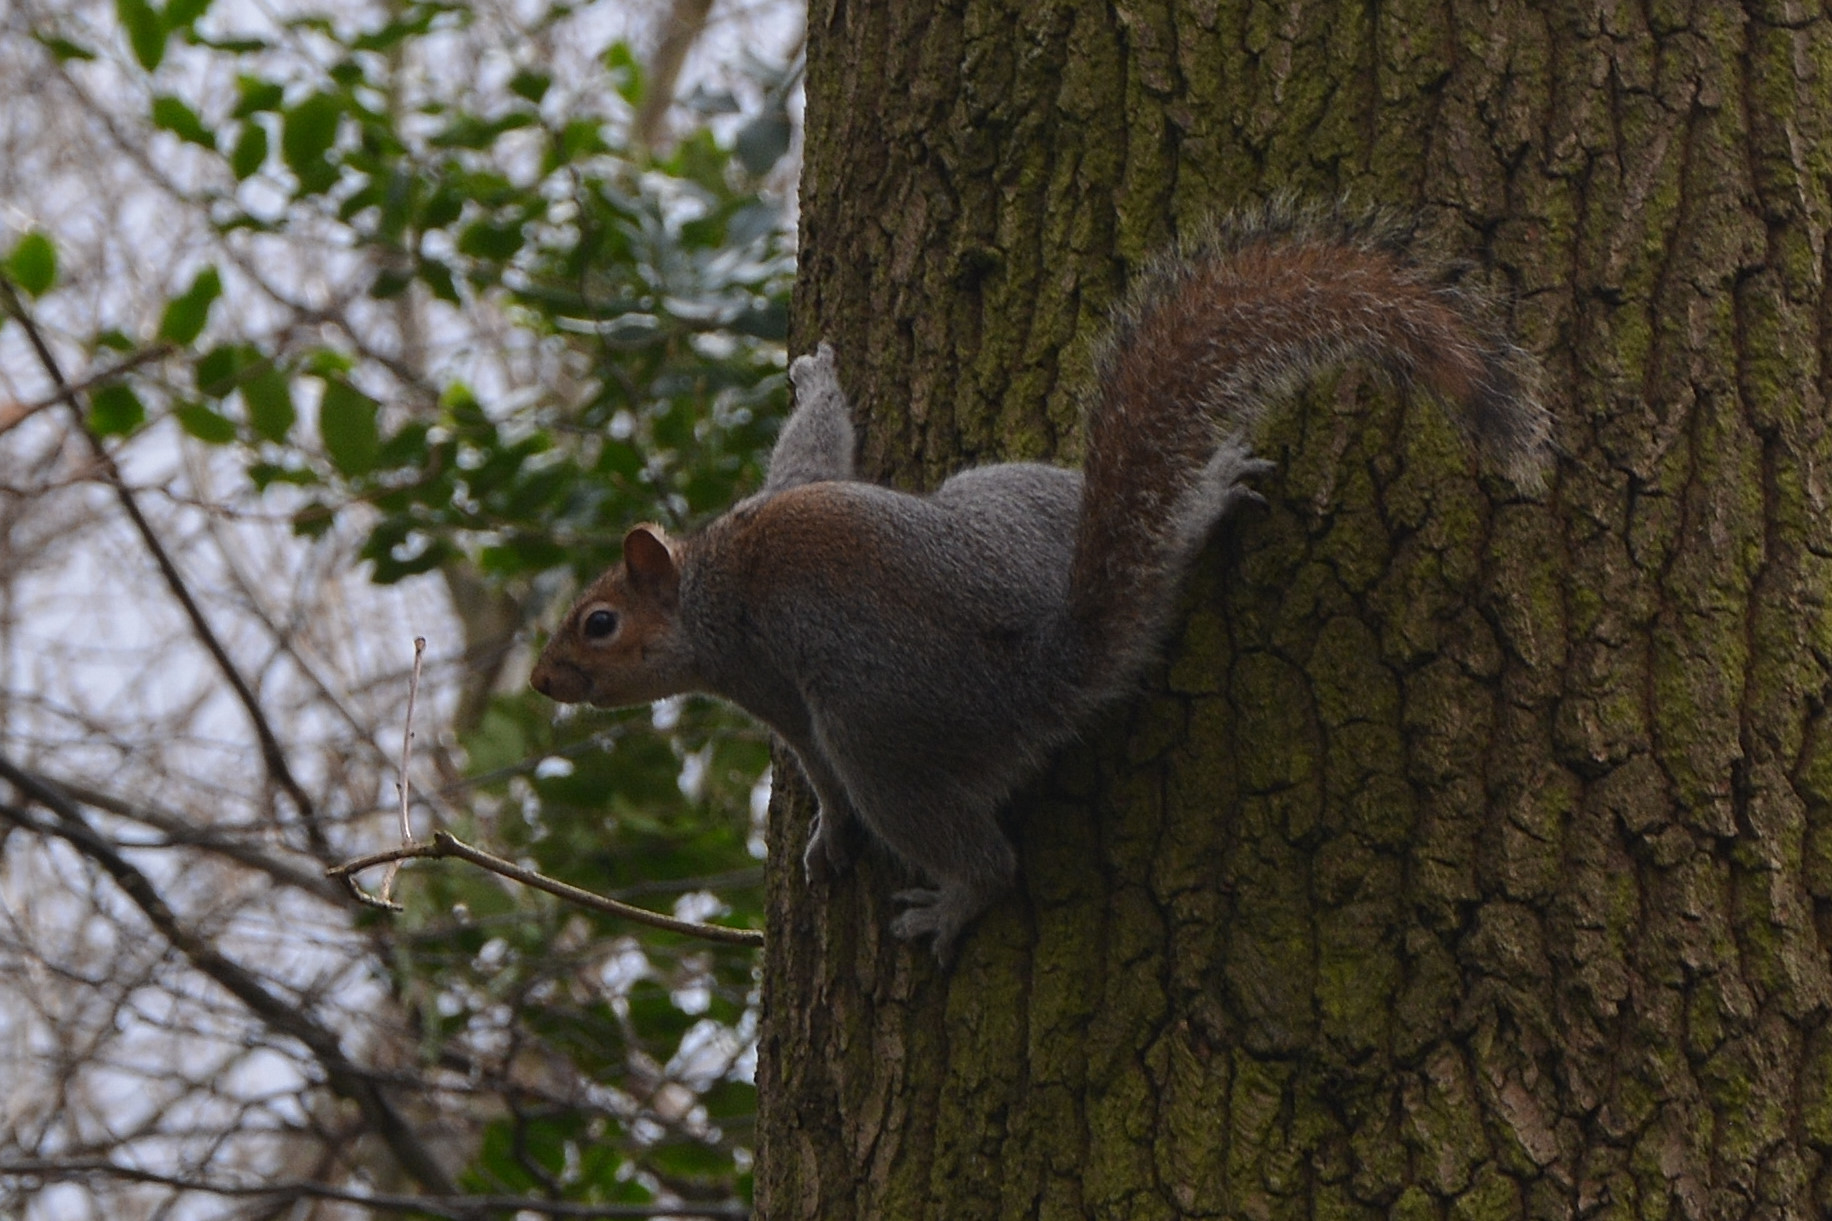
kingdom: Animalia
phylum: Chordata
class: Mammalia
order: Rodentia
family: Sciuridae
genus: Sciurus
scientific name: Sciurus carolinensis
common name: Eastern gray squirrel
